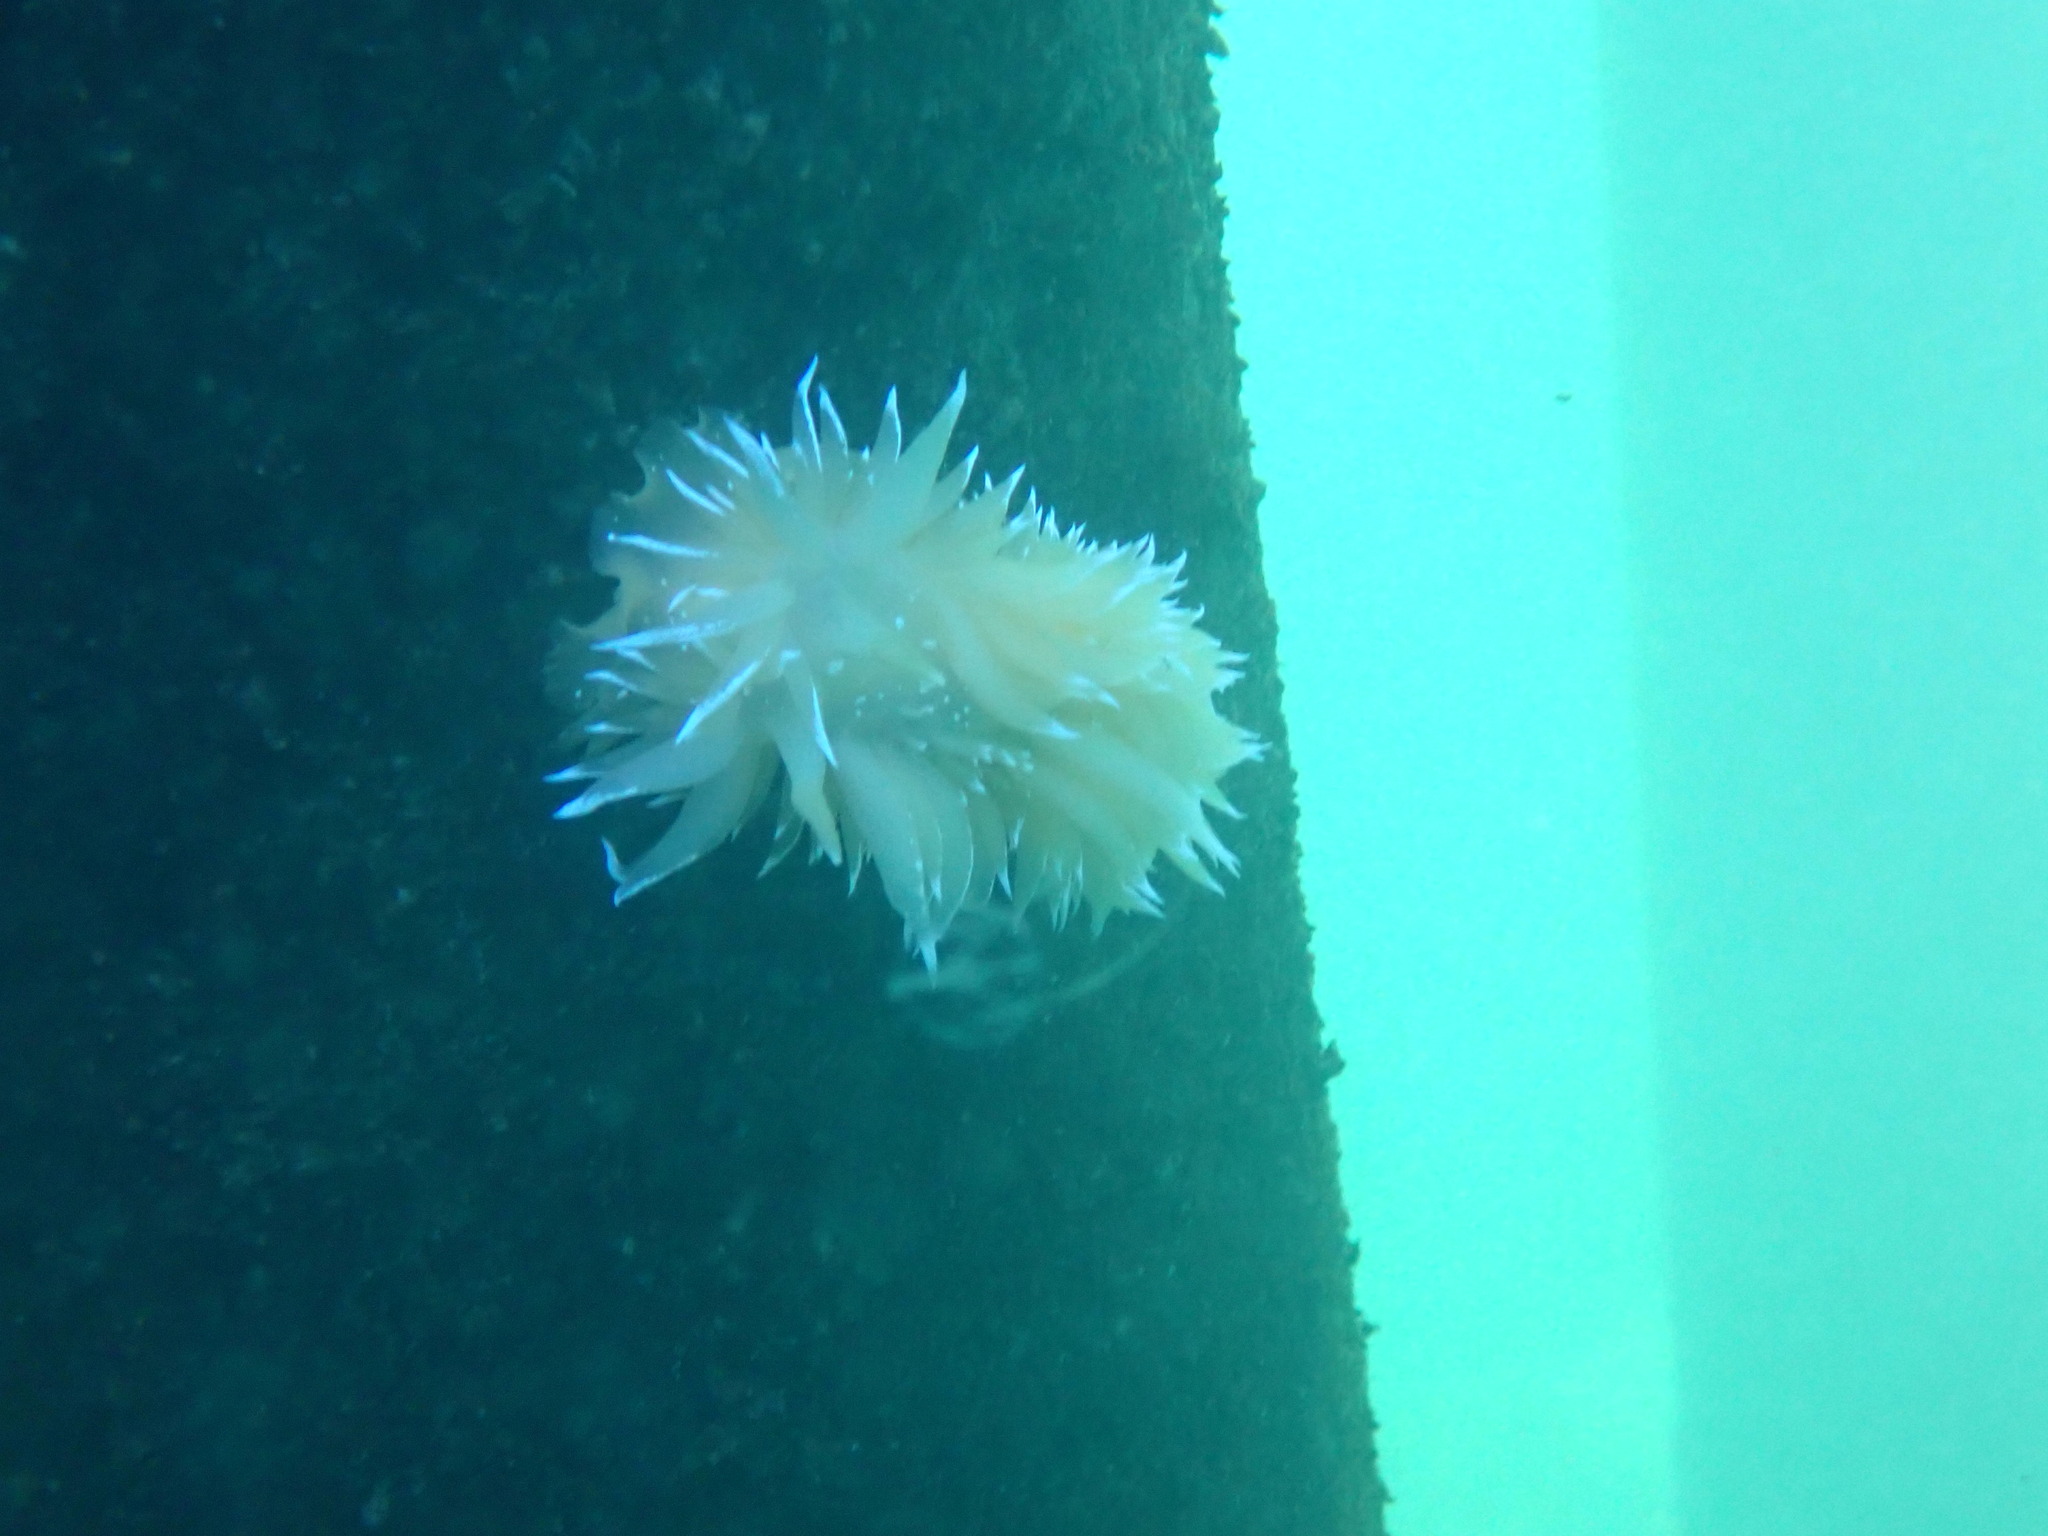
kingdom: Animalia
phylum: Mollusca
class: Gastropoda
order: Nudibranchia
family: Dironidae
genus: Dirona
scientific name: Dirona pellucida
